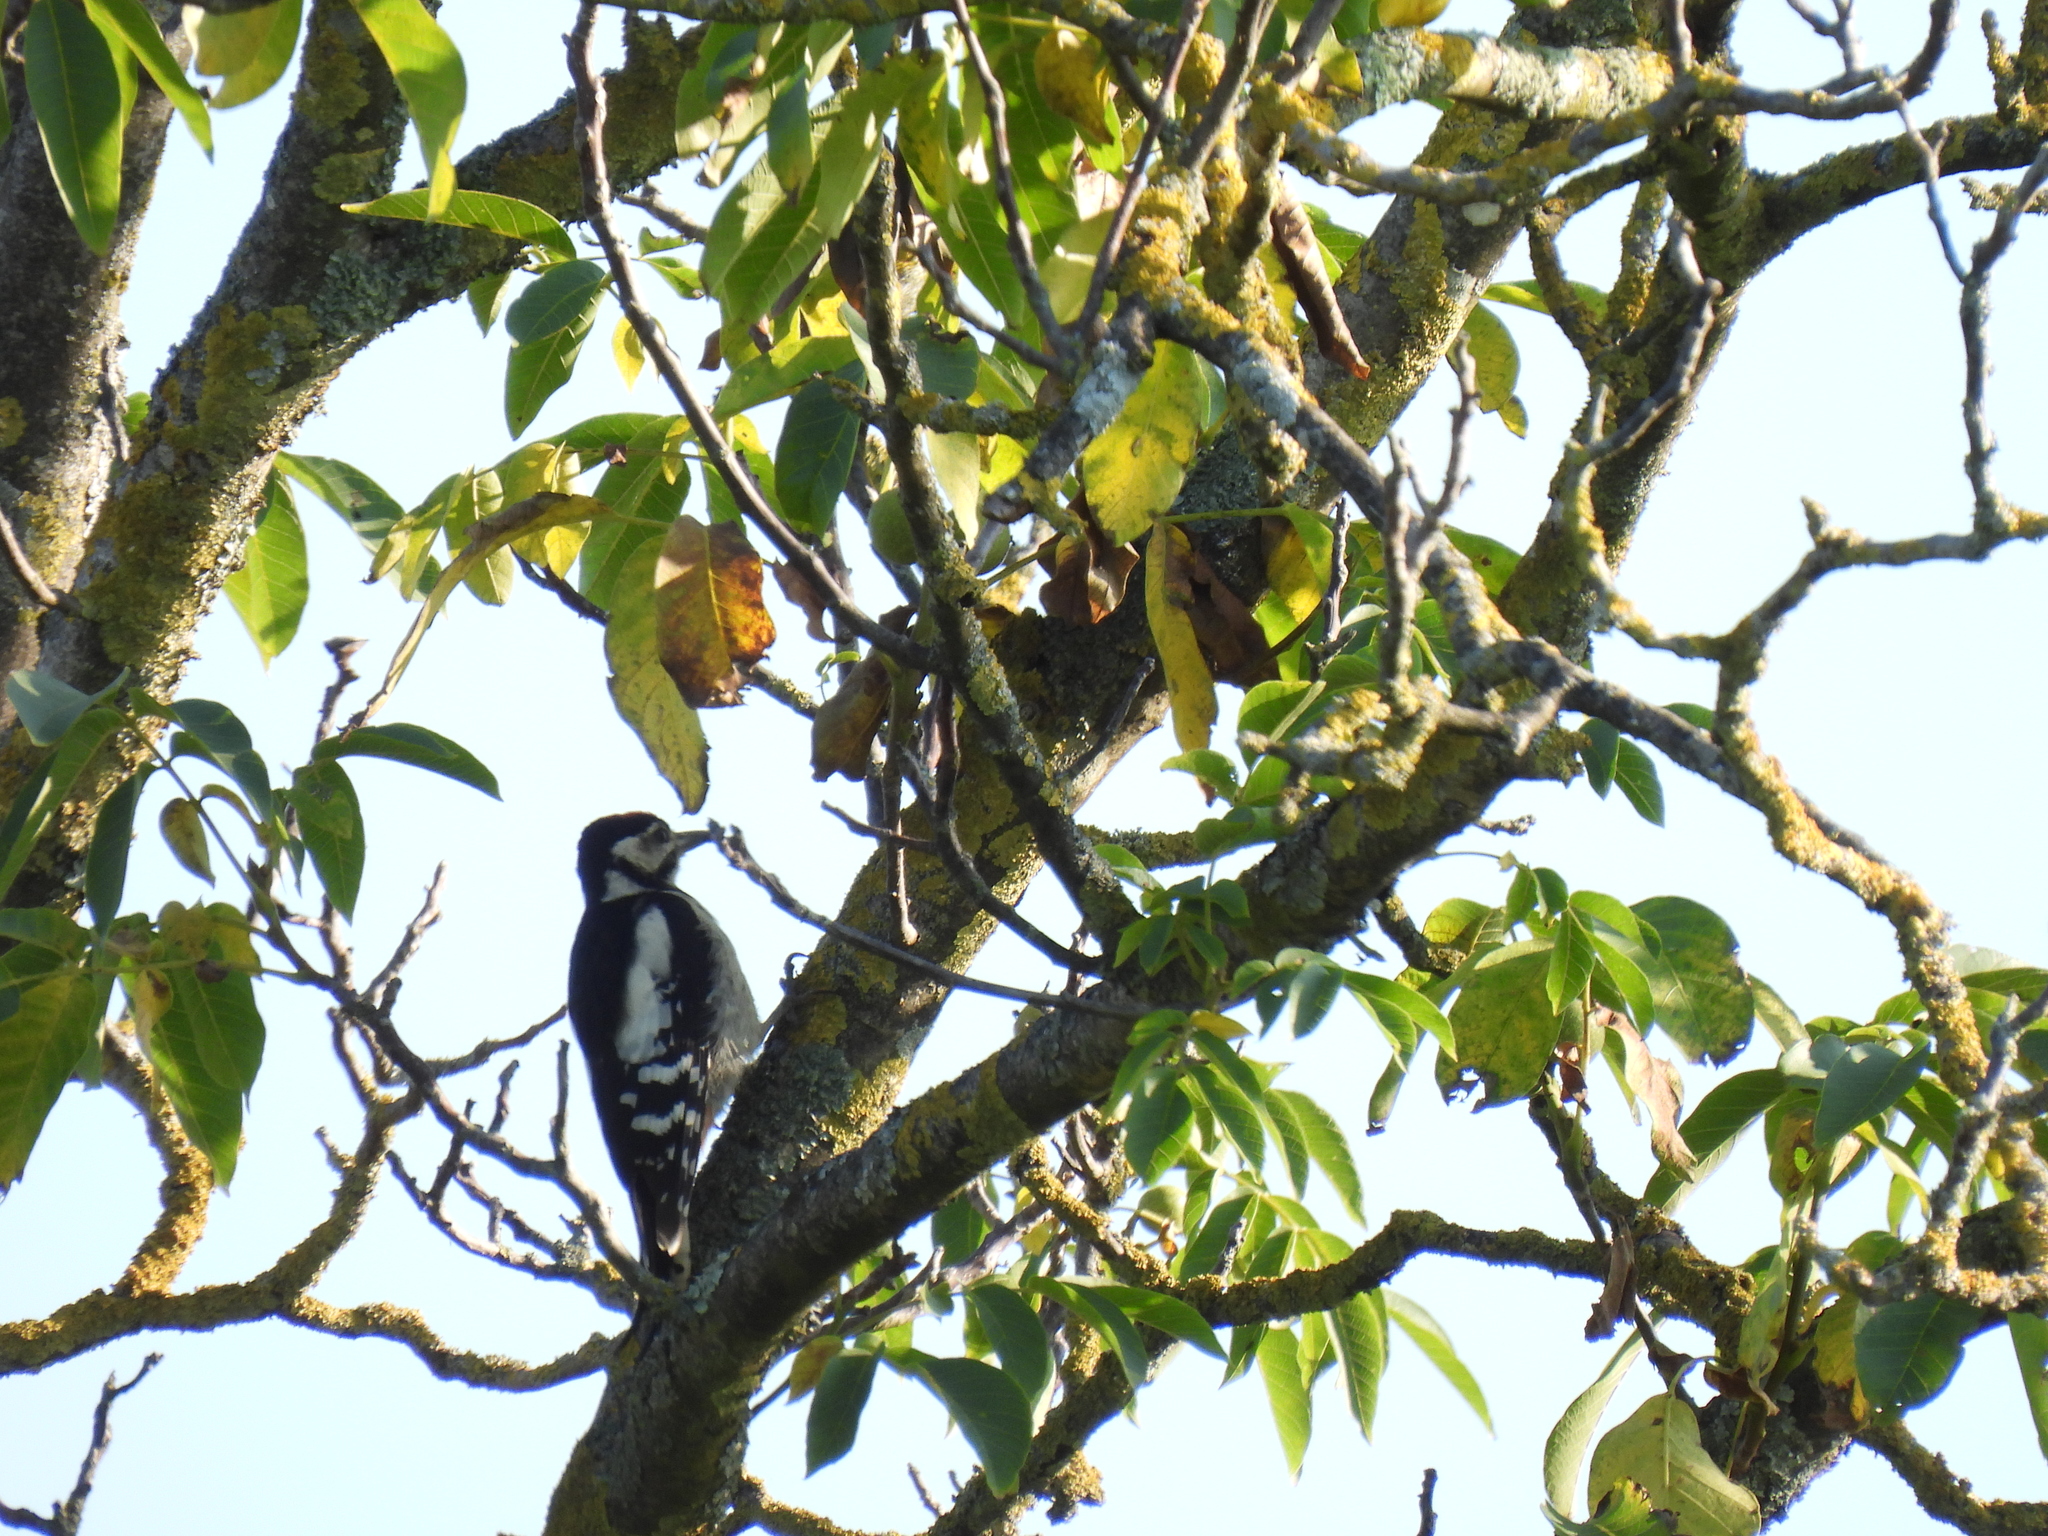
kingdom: Animalia
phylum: Chordata
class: Aves
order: Piciformes
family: Picidae
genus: Dendrocopos
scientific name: Dendrocopos major
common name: Great spotted woodpecker
